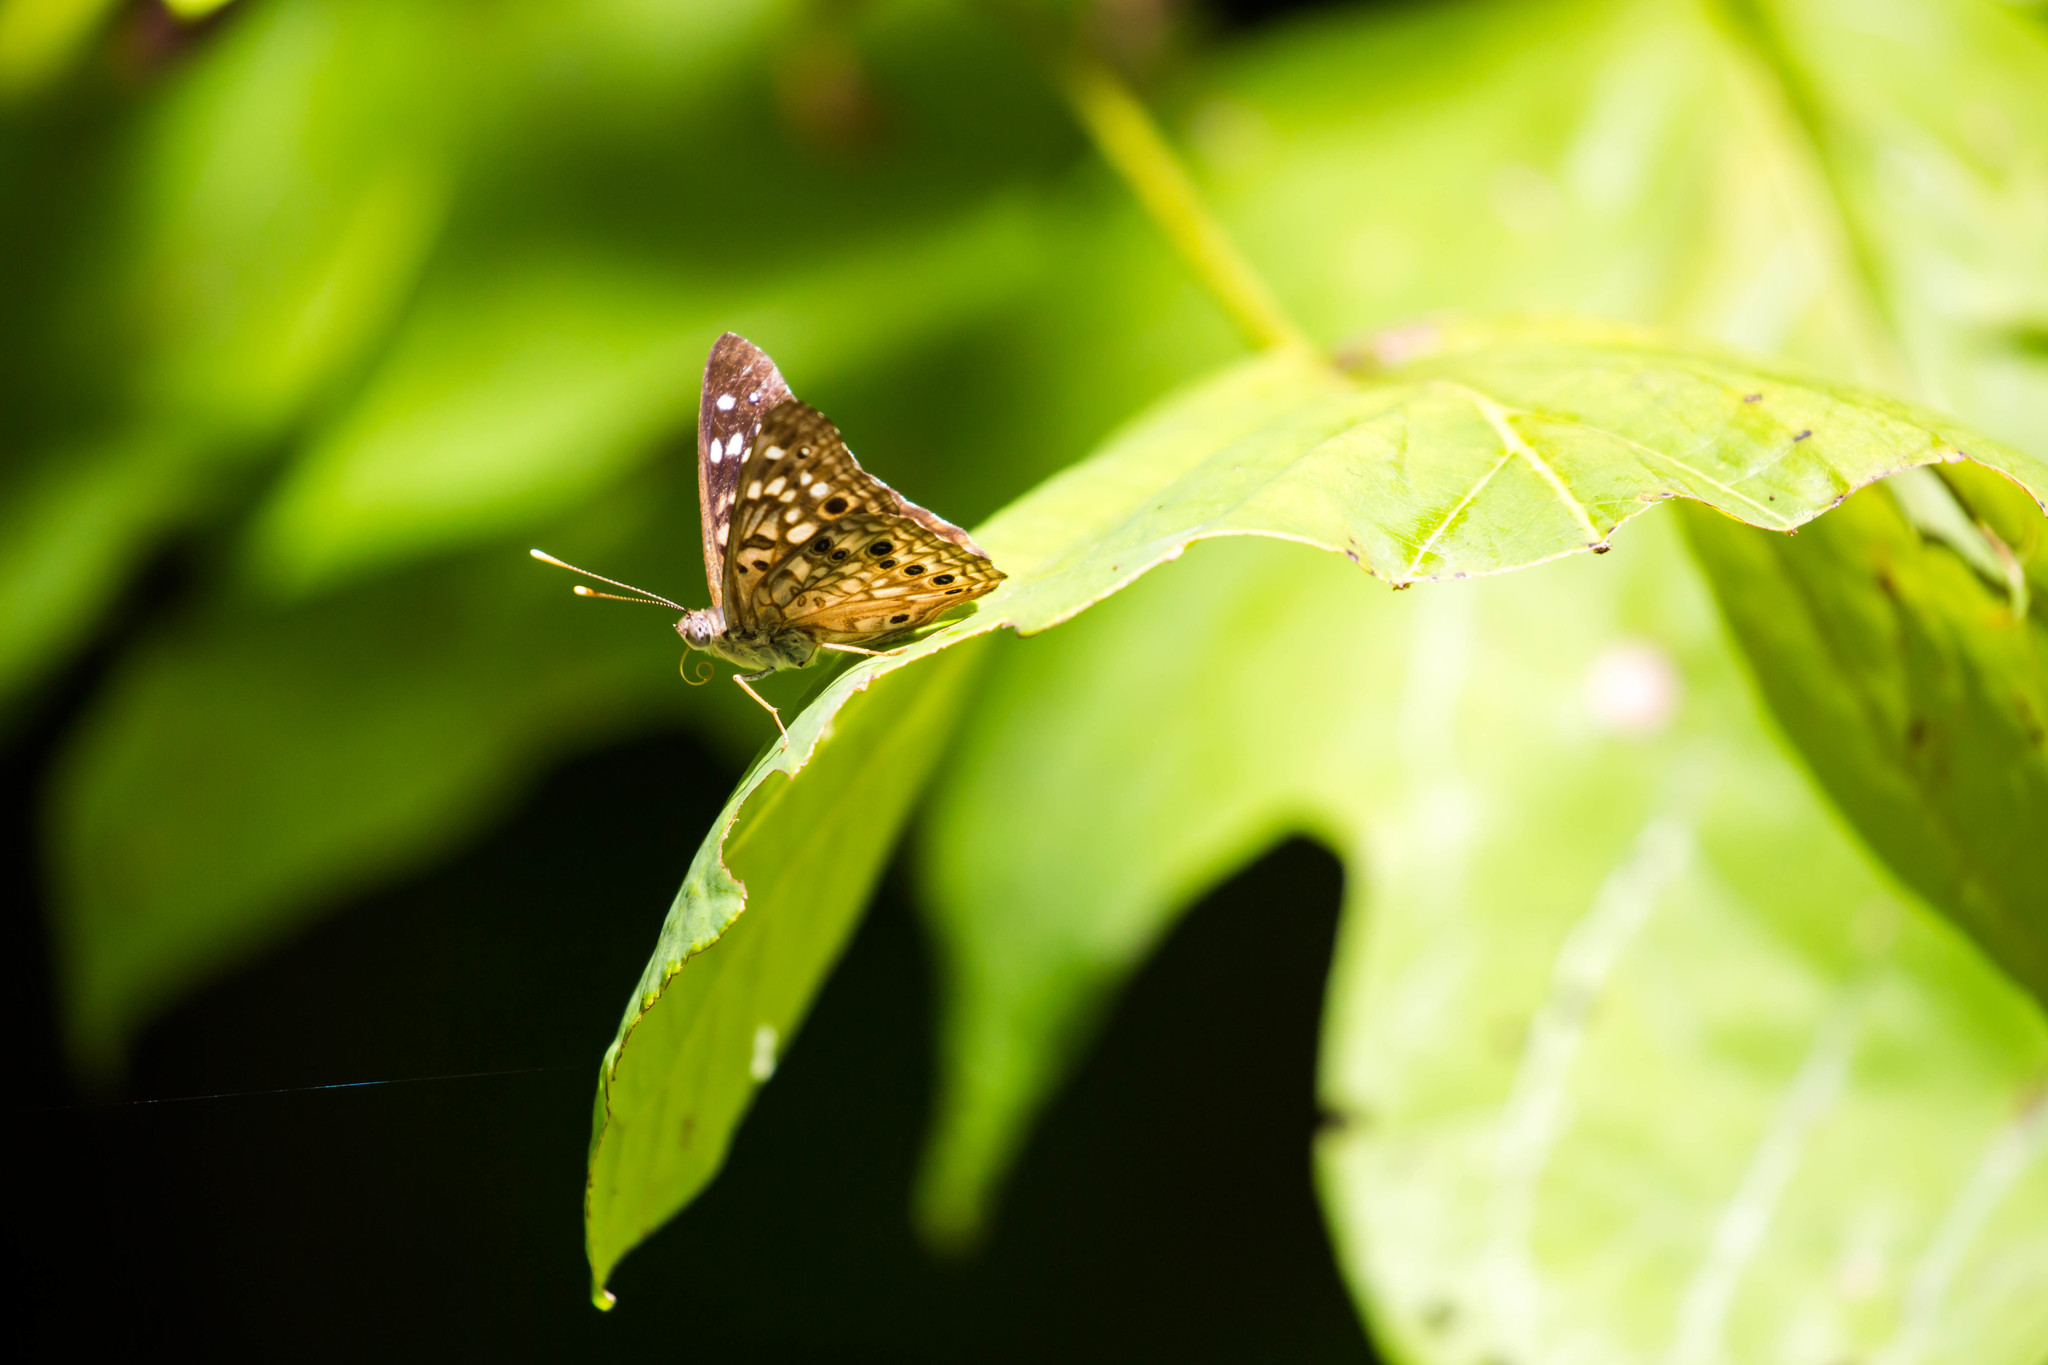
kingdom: Animalia
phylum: Arthropoda
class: Insecta
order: Lepidoptera
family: Nymphalidae
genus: Asterocampa
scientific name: Asterocampa celtis
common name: Hackberry emperor
